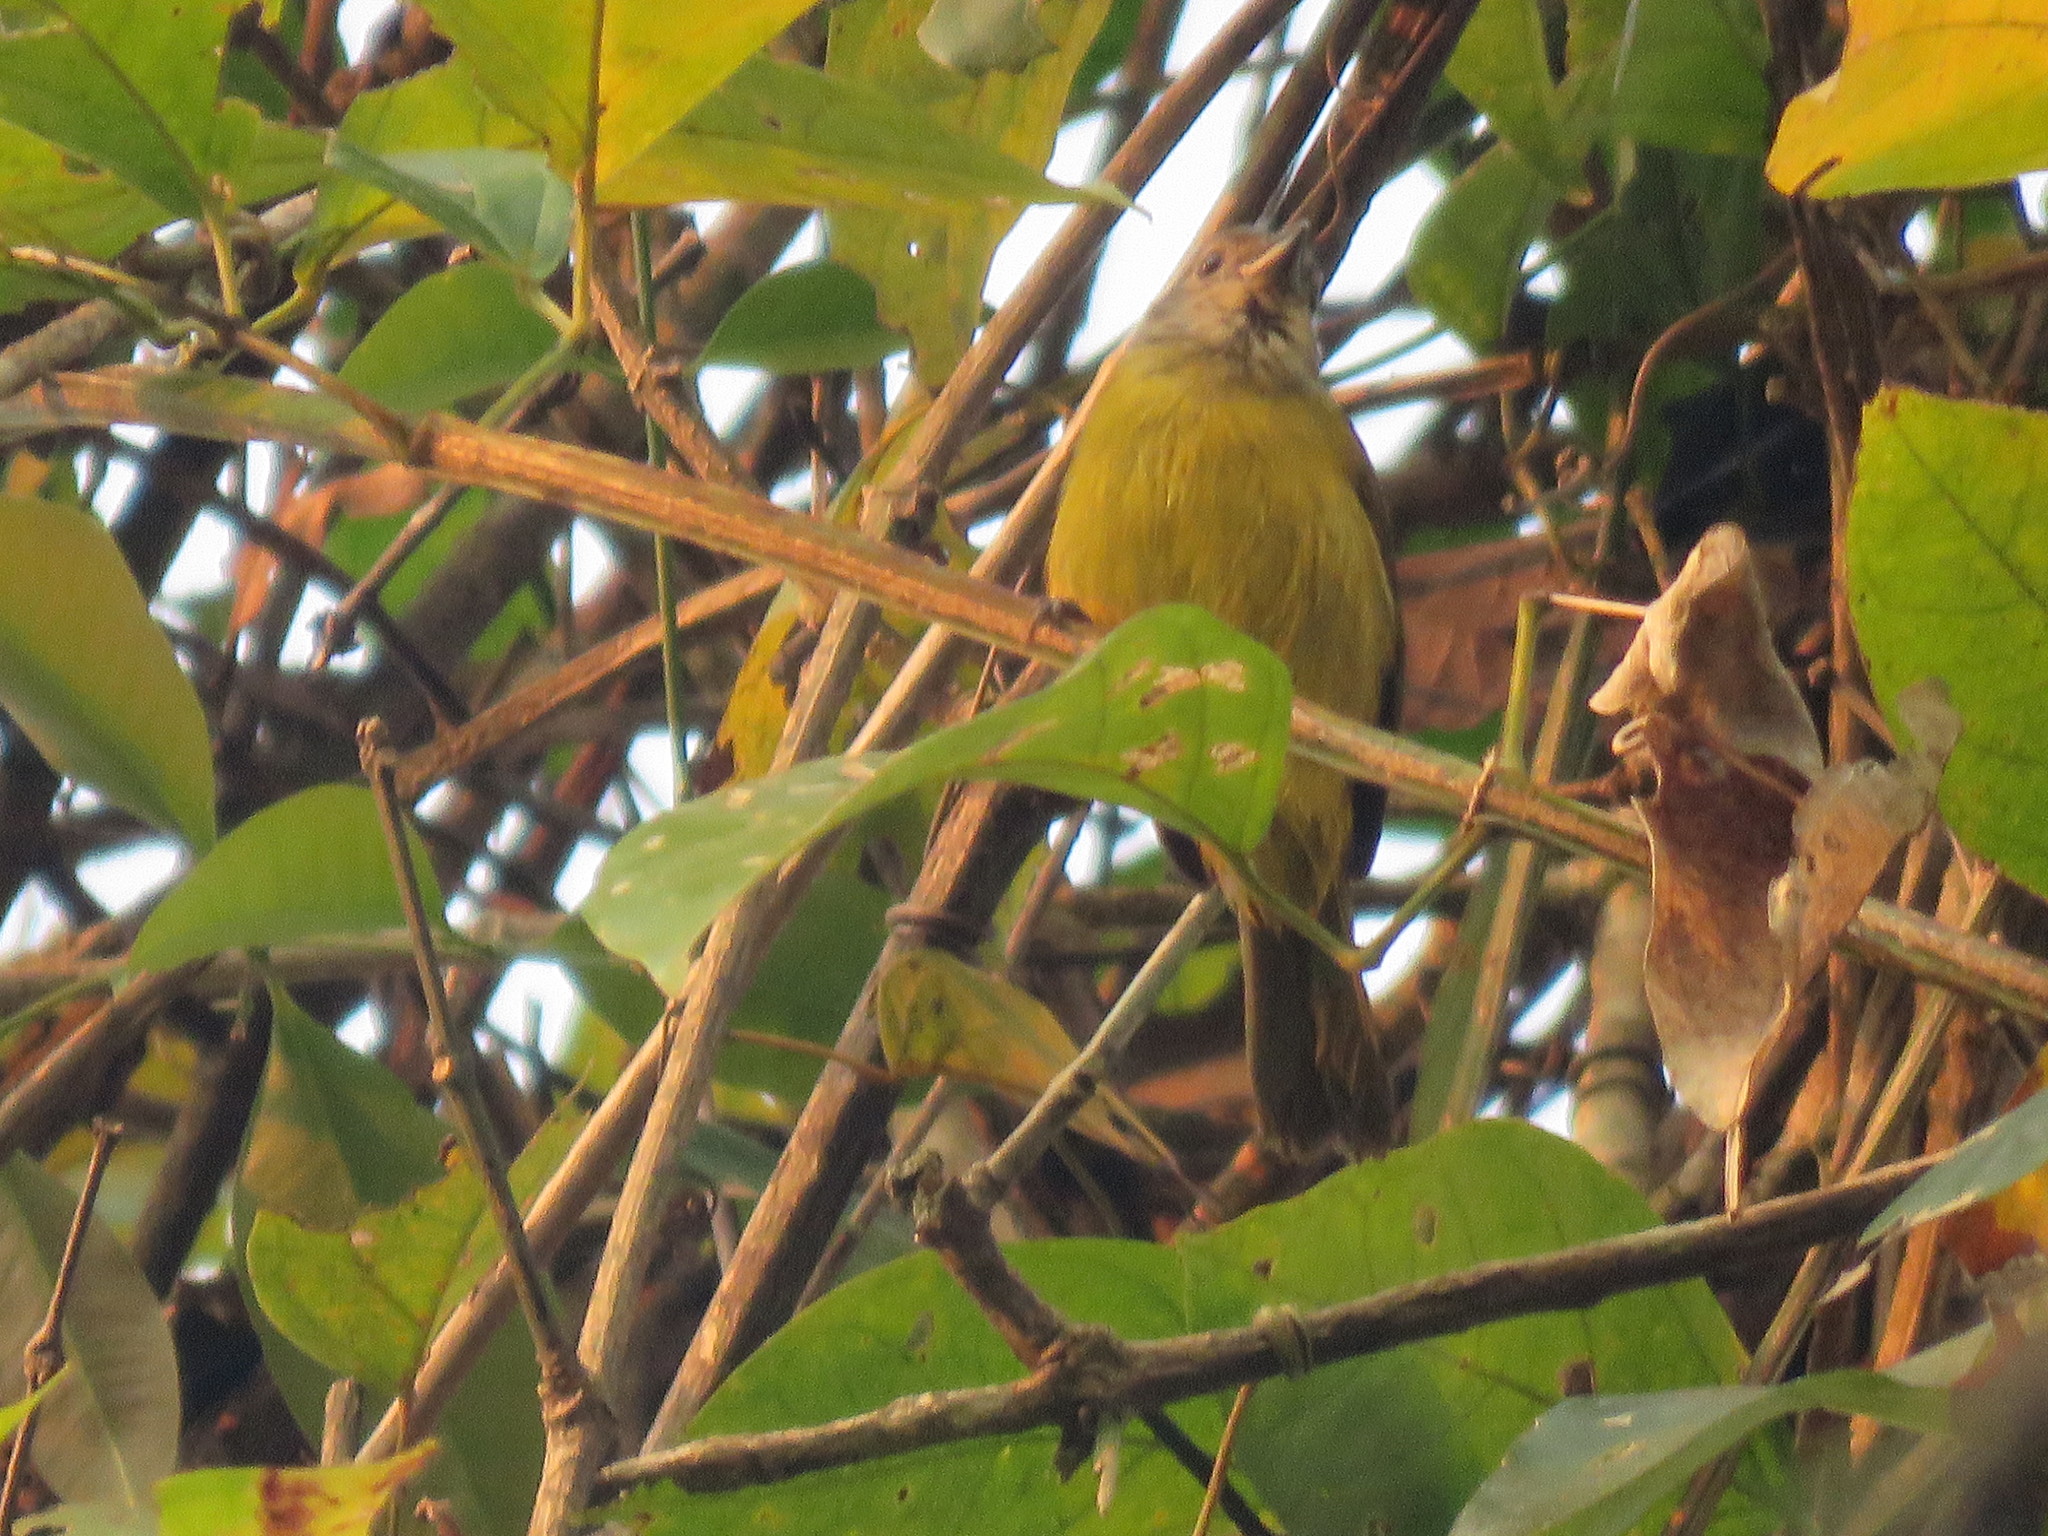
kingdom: Animalia
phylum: Chordata
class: Aves
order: Passeriformes
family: Thraupidae
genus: Loriotus
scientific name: Loriotus luctuosus
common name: White-shouldered tanager
